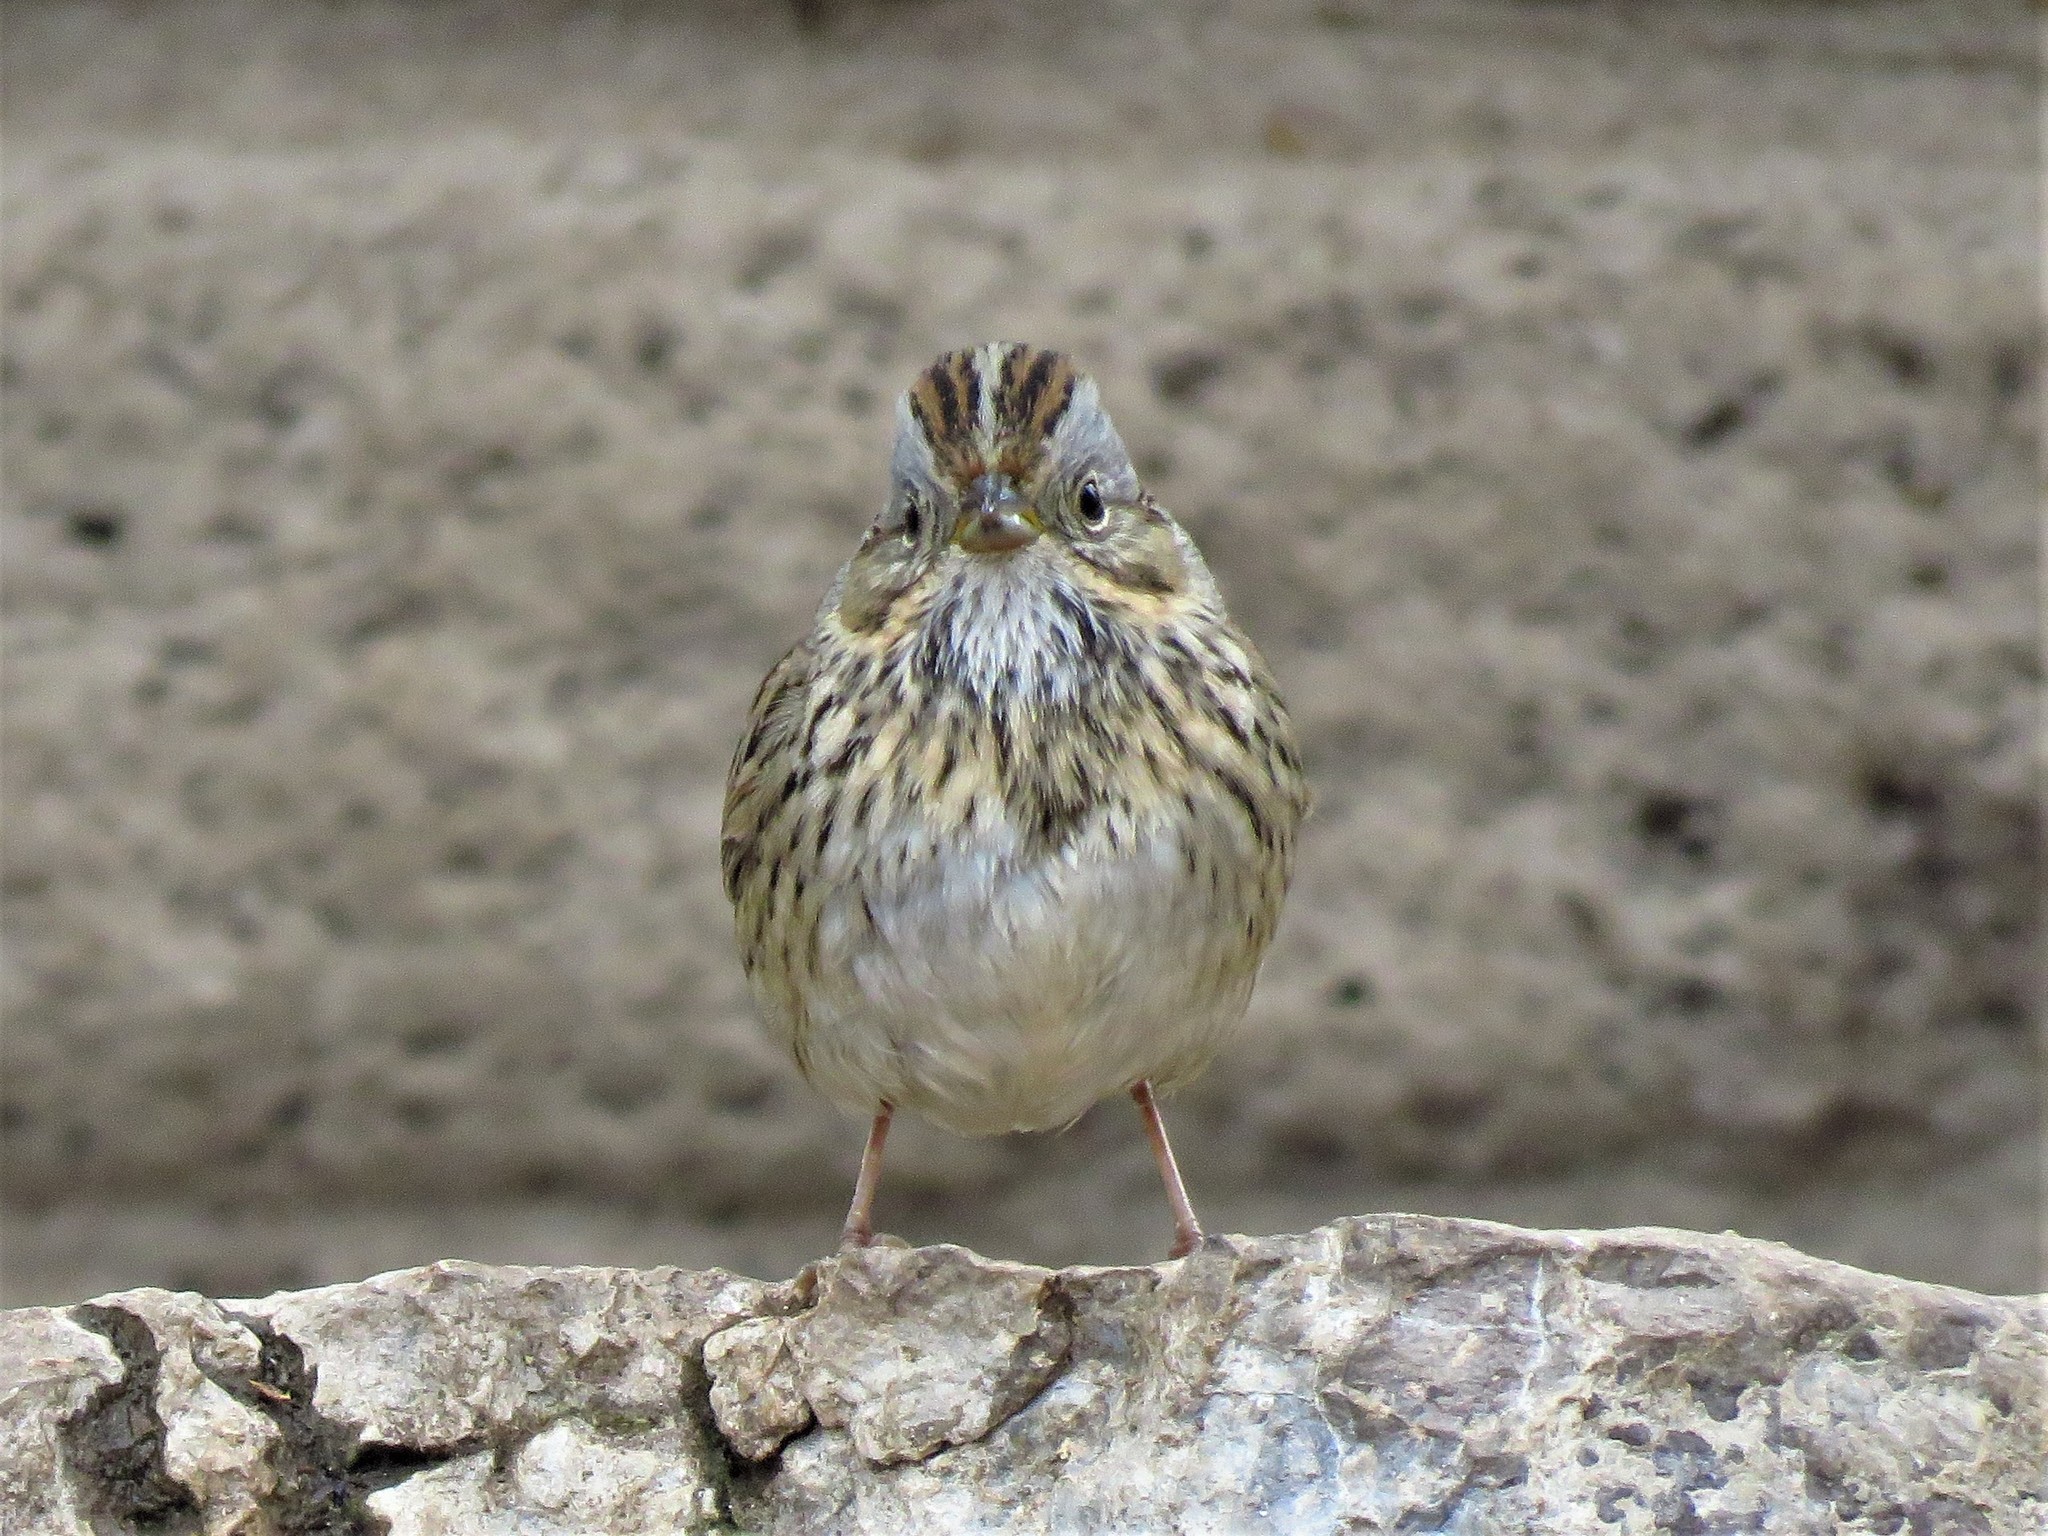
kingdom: Animalia
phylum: Chordata
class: Aves
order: Passeriformes
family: Passerellidae
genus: Melospiza
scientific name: Melospiza lincolnii
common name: Lincoln's sparrow
